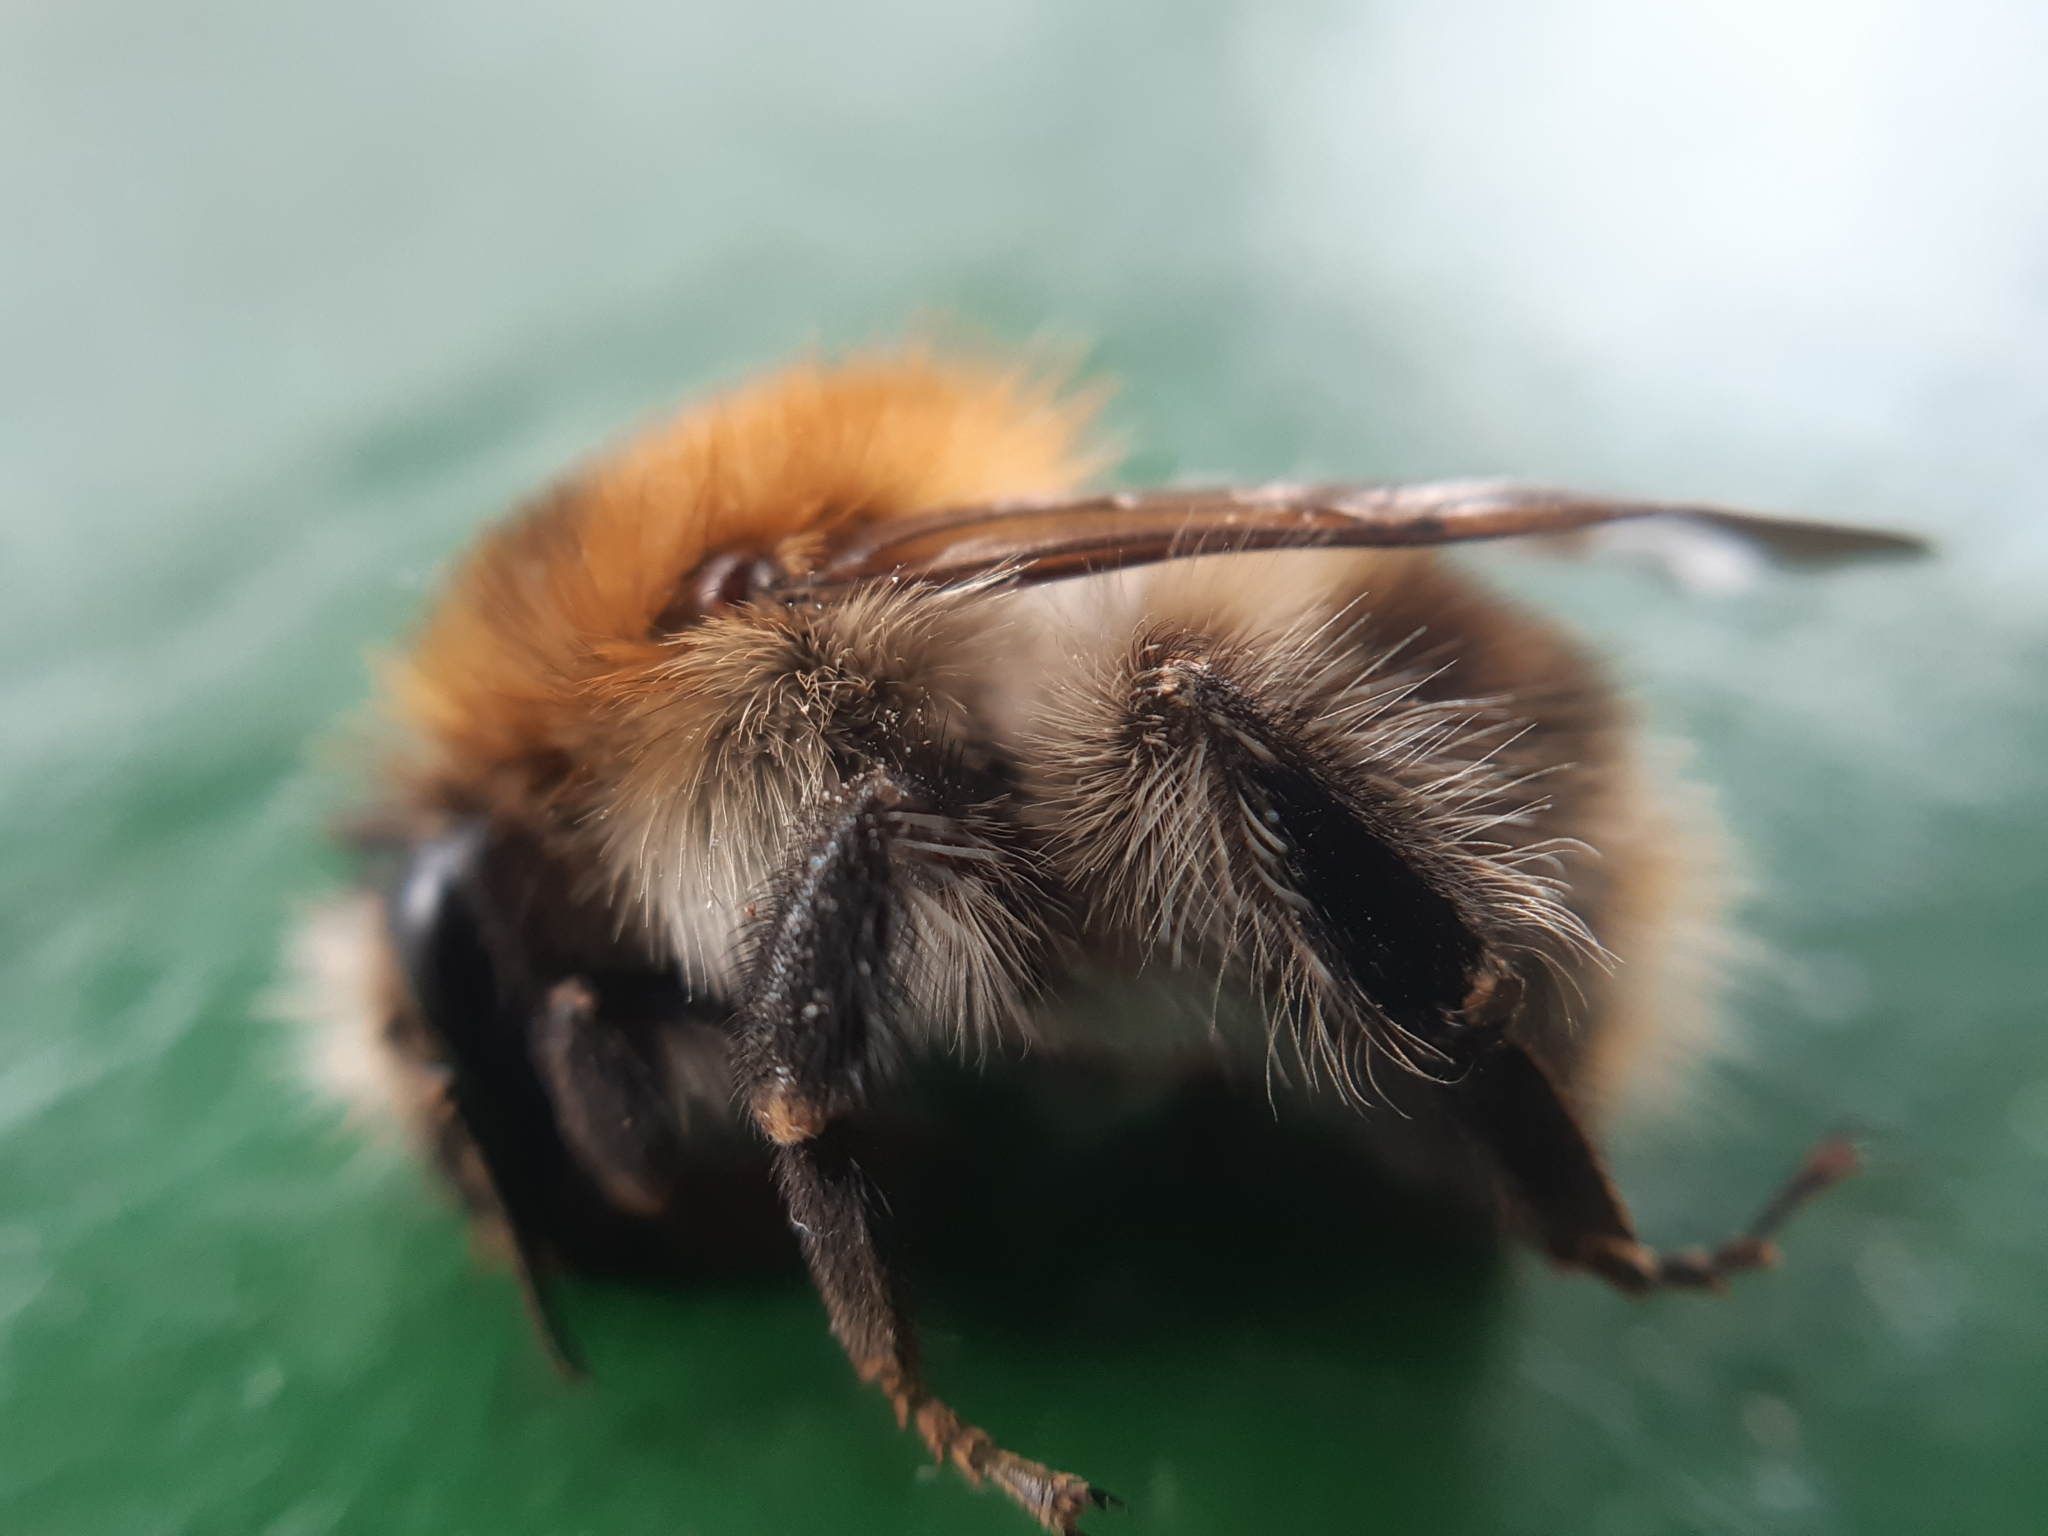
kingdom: Animalia
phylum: Arthropoda
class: Insecta
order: Hymenoptera
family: Apidae
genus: Bombus
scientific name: Bombus pascuorum
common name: Common carder bee
